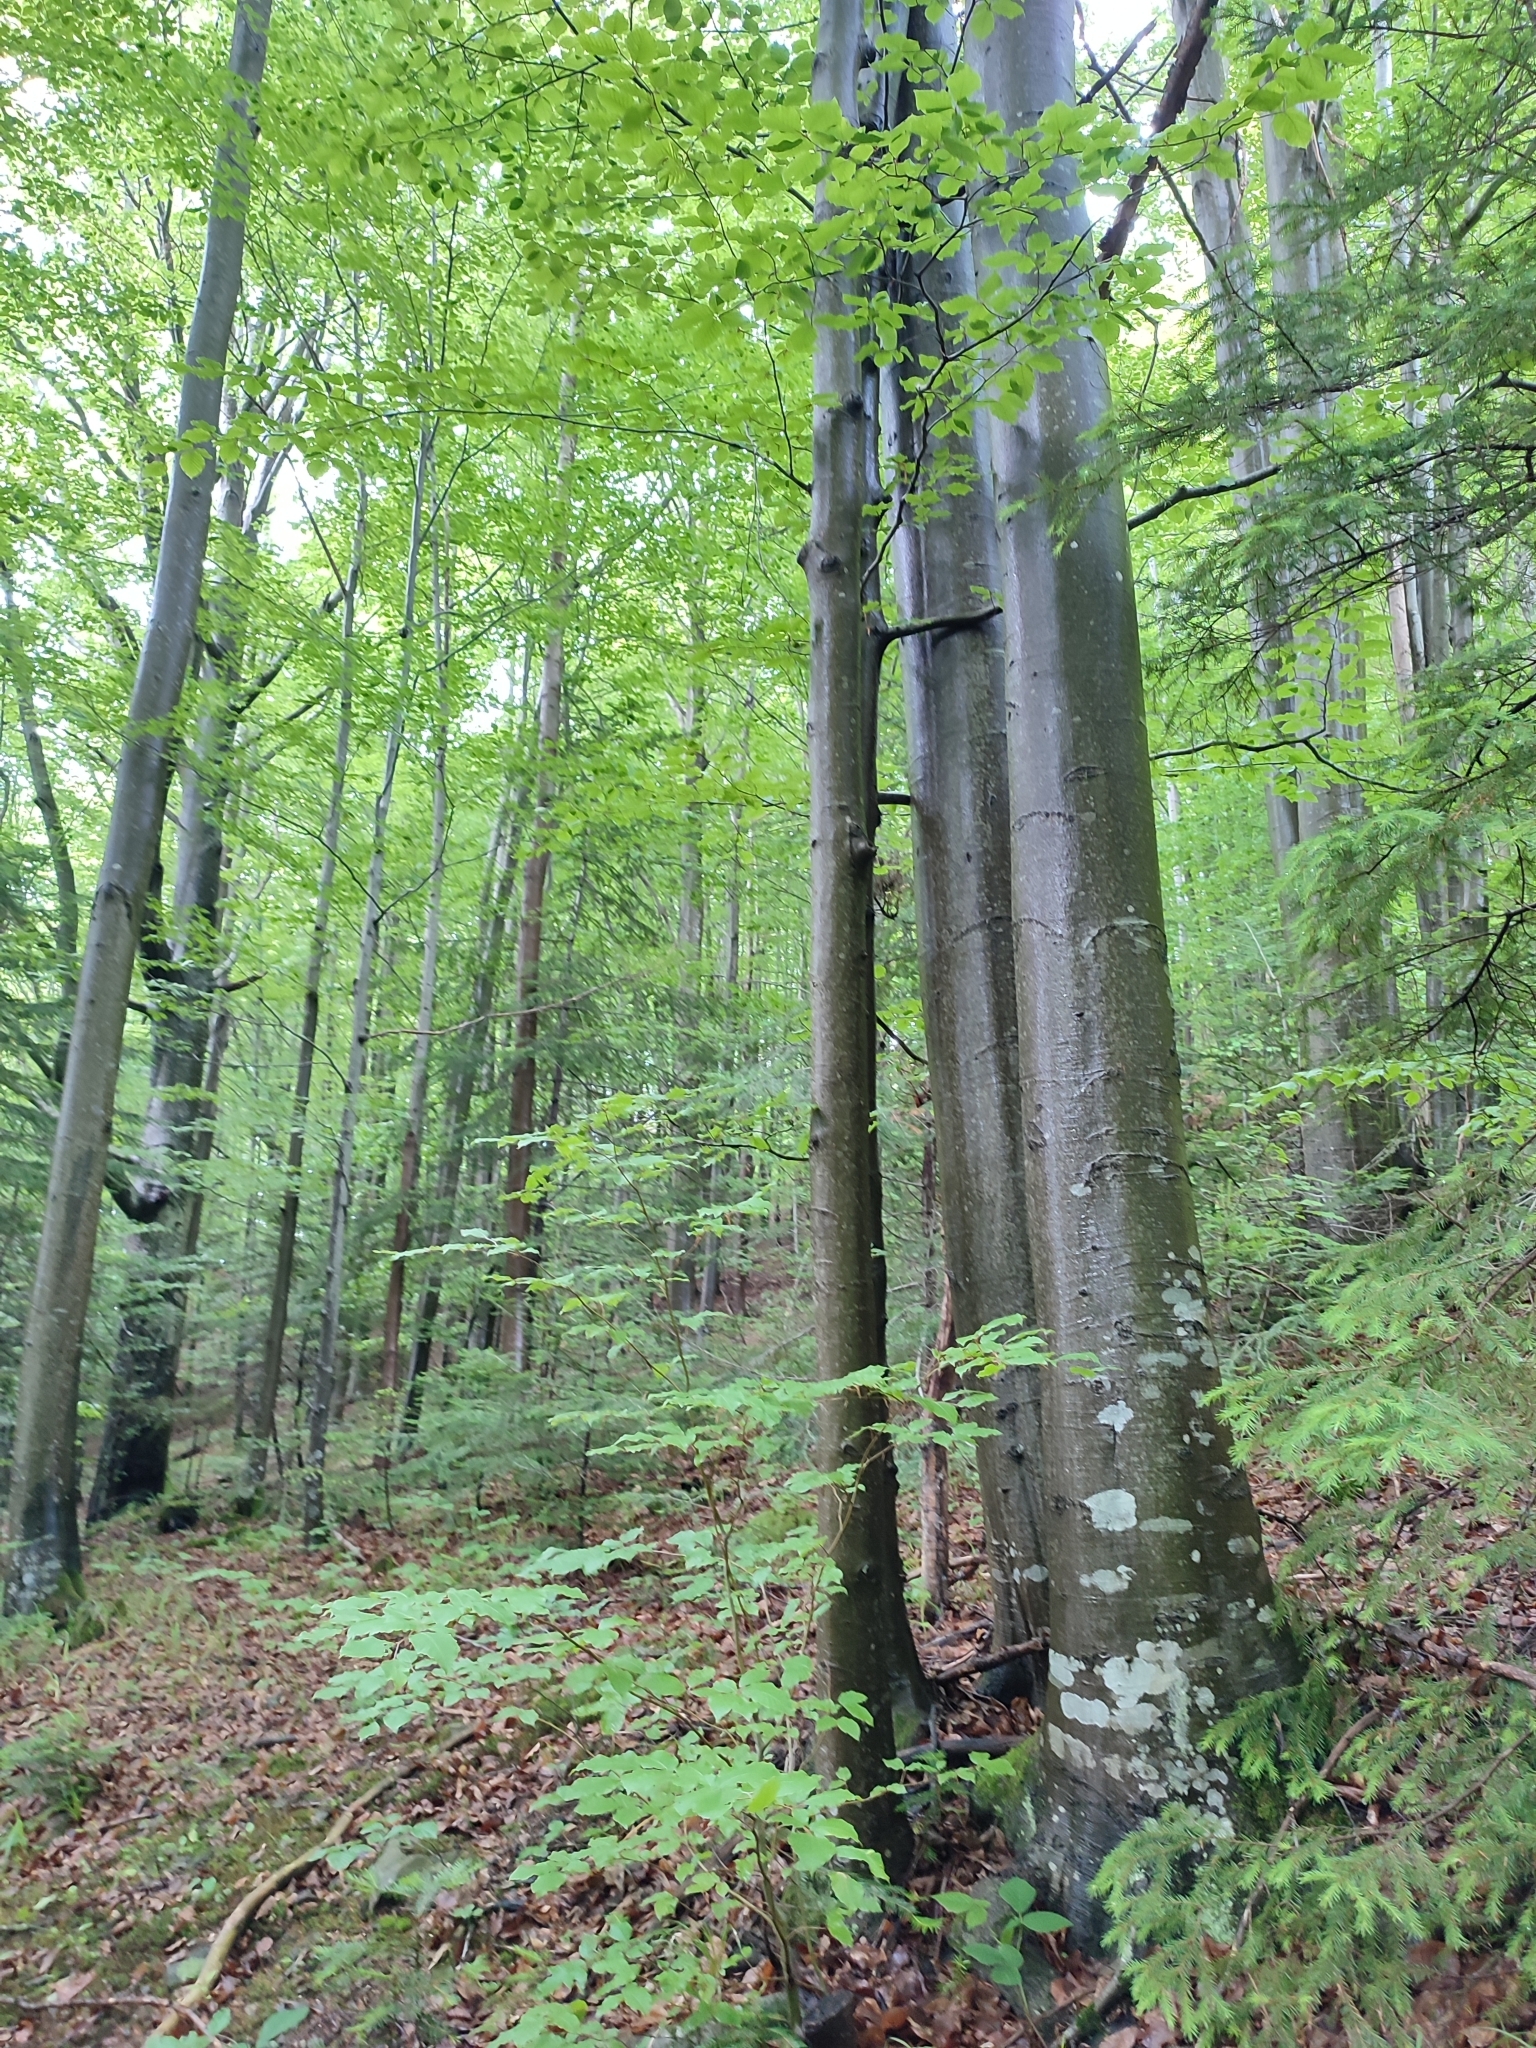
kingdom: Plantae
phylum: Tracheophyta
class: Magnoliopsida
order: Fagales
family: Fagaceae
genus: Fagus
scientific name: Fagus sylvatica
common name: Beech
